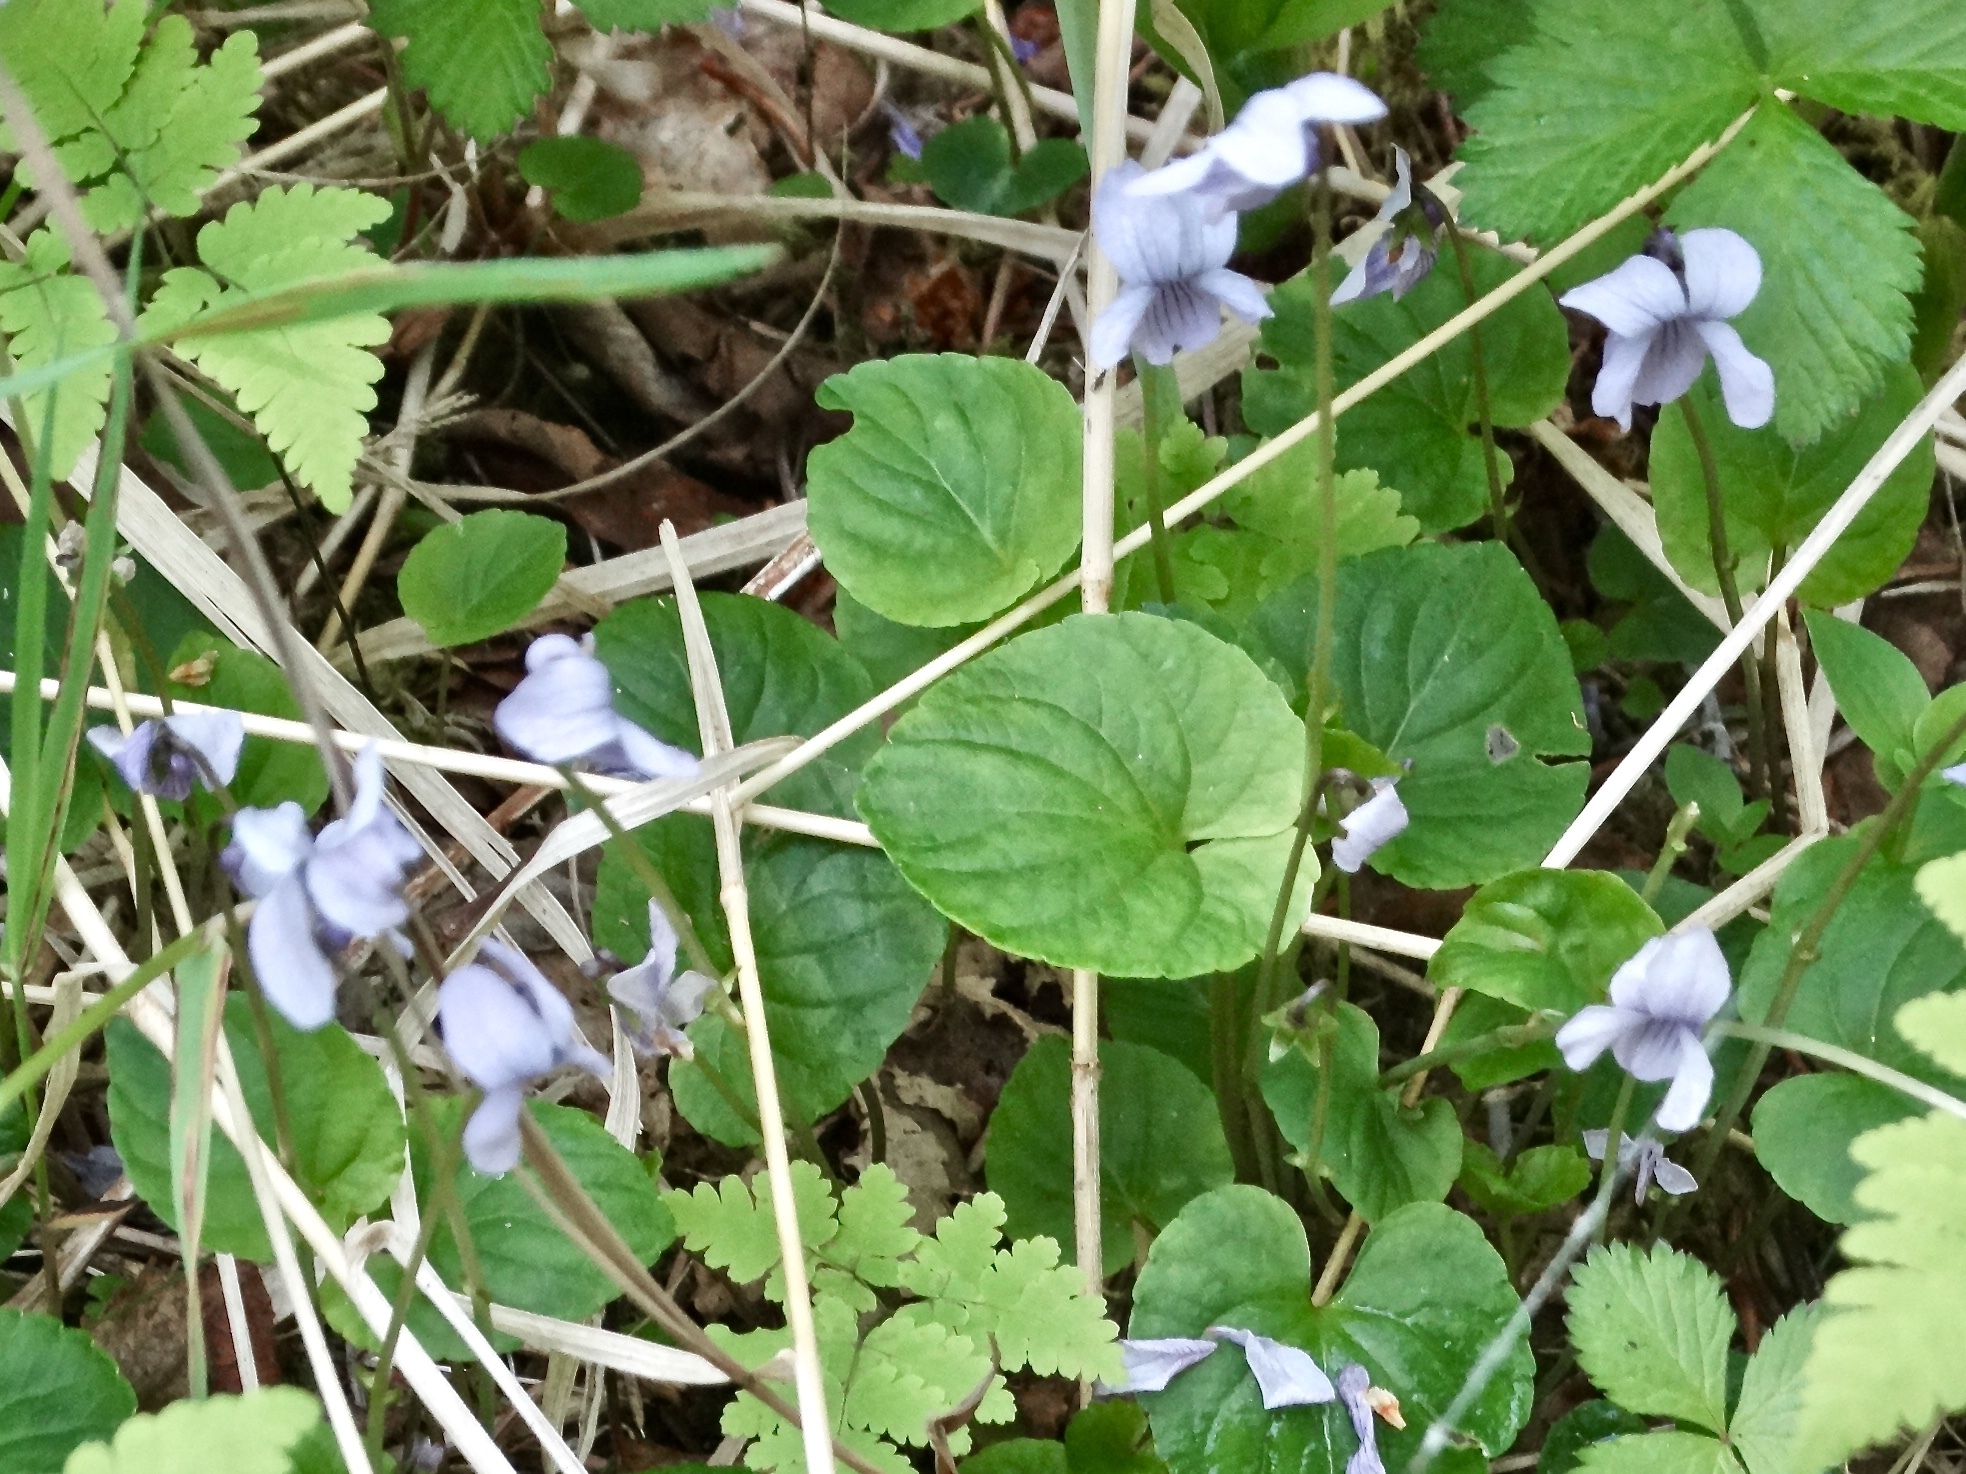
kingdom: Plantae
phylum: Tracheophyta
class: Magnoliopsida
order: Malpighiales
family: Violaceae
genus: Viola
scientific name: Viola epipsila
